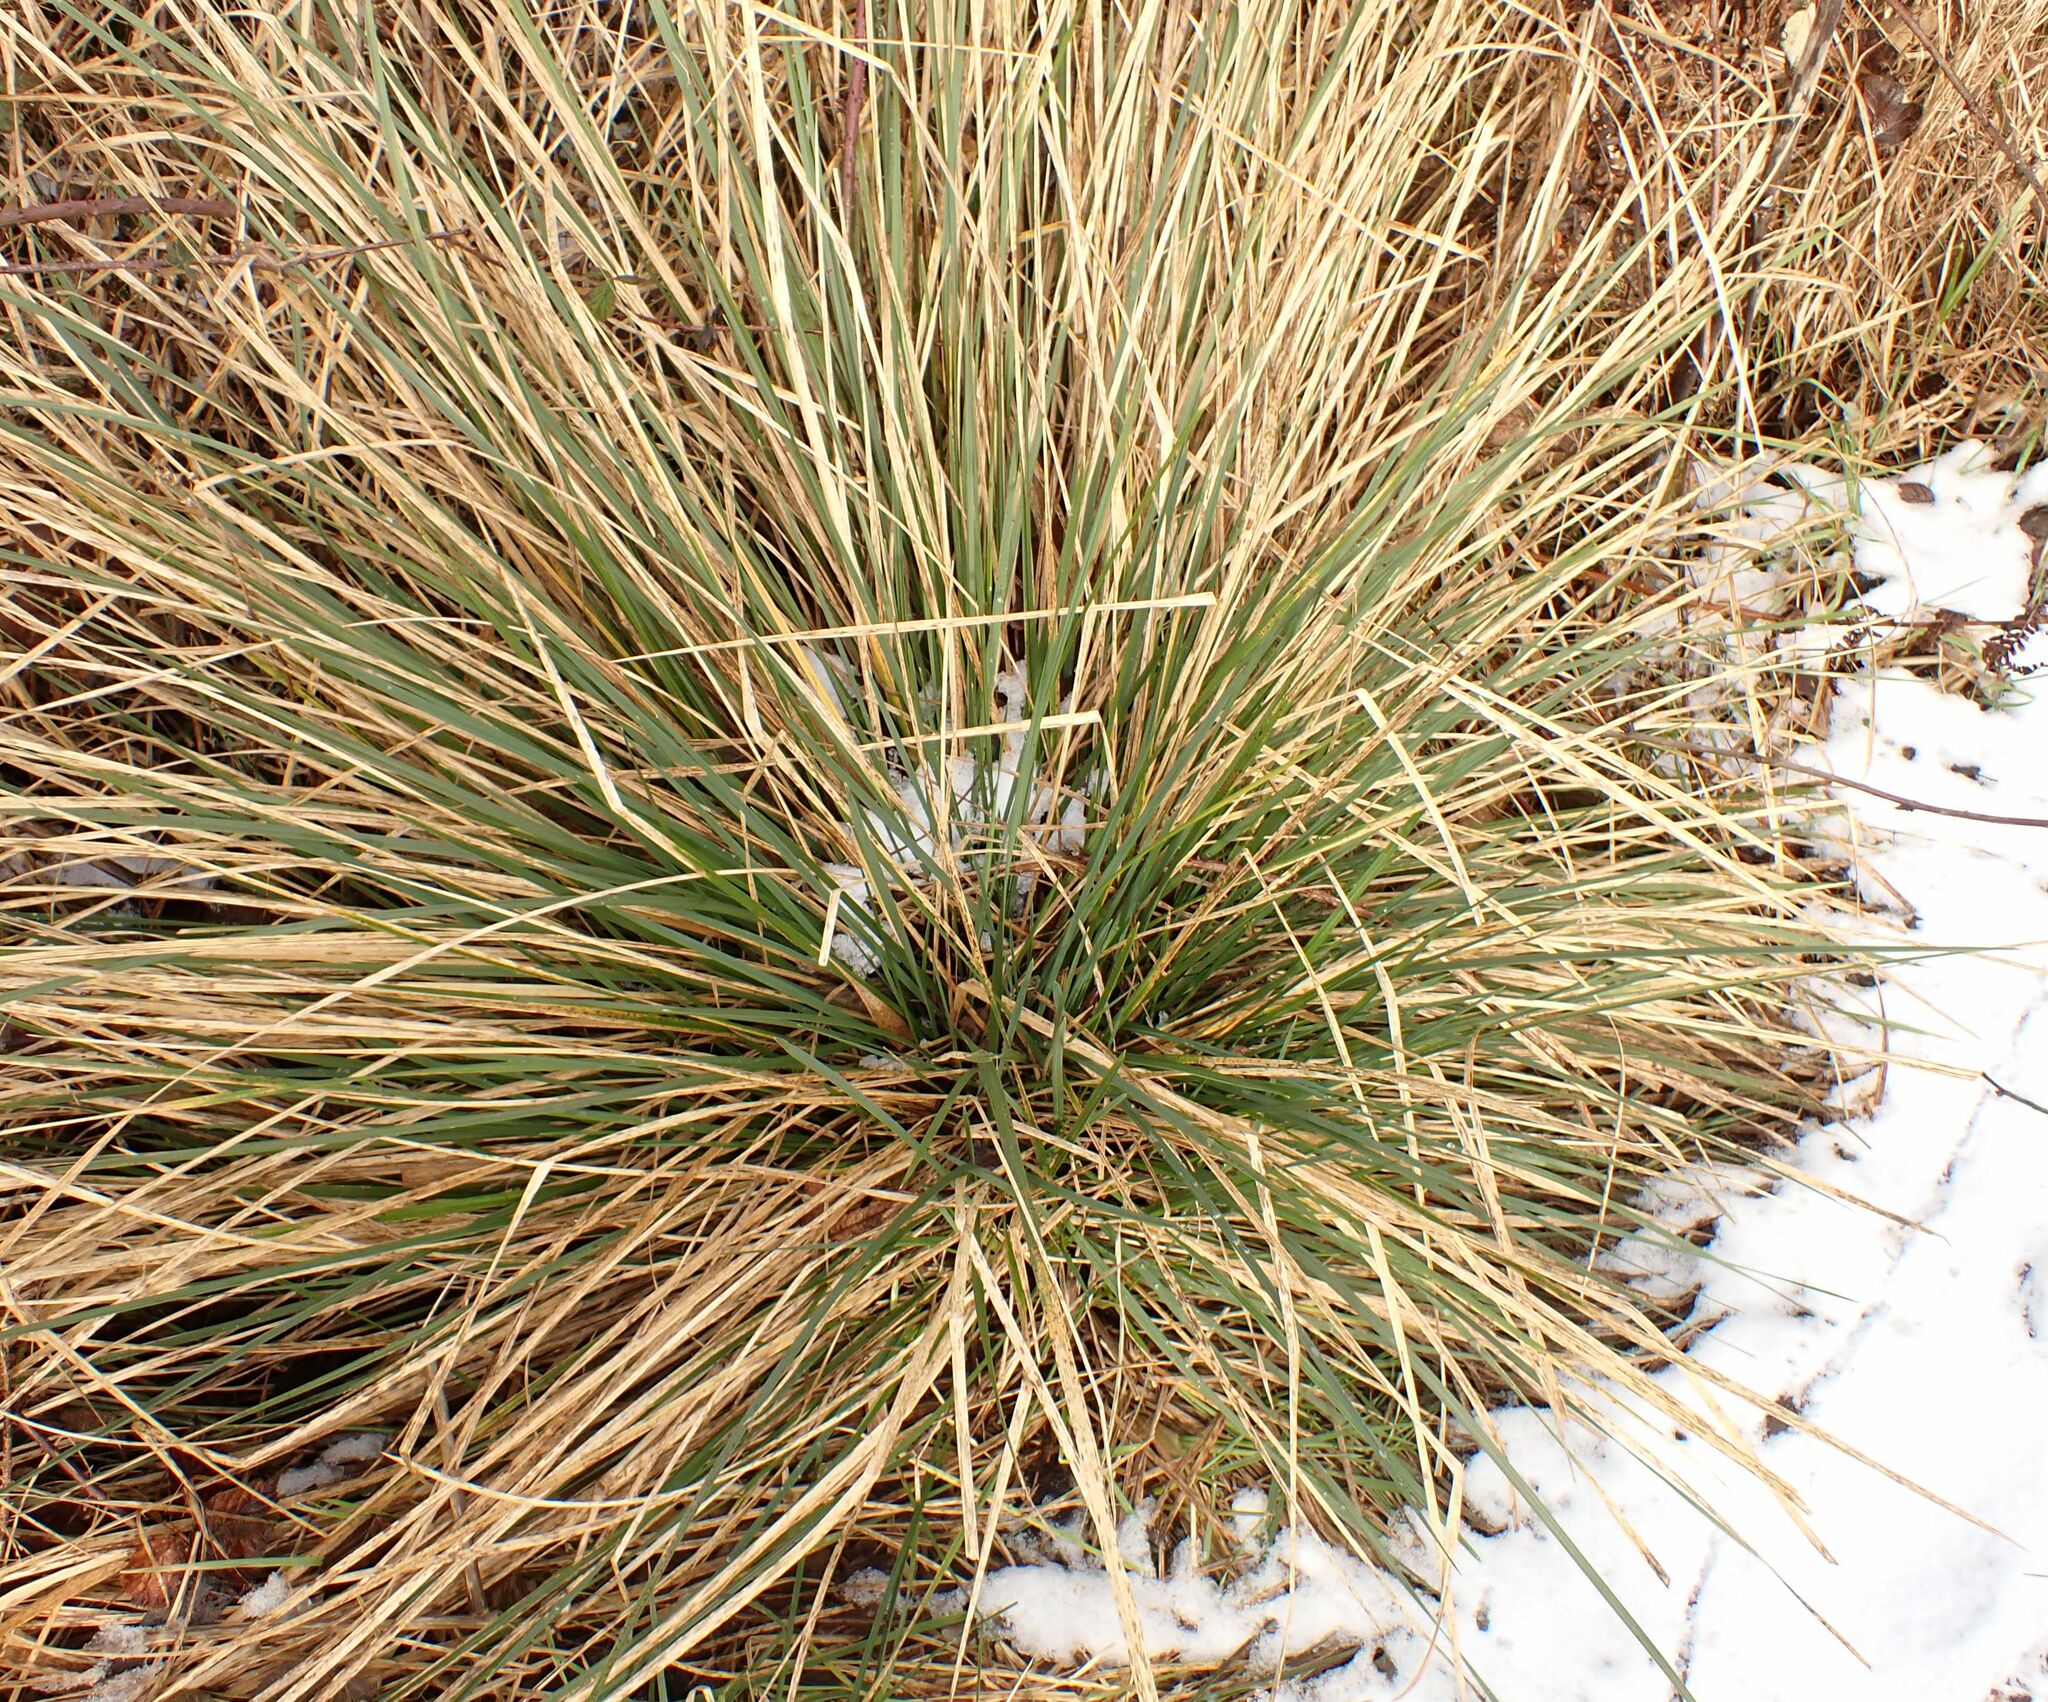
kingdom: Plantae
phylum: Tracheophyta
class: Liliopsida
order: Poales
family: Poaceae
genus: Deschampsia
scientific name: Deschampsia cespitosa
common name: Tufted hair-grass
